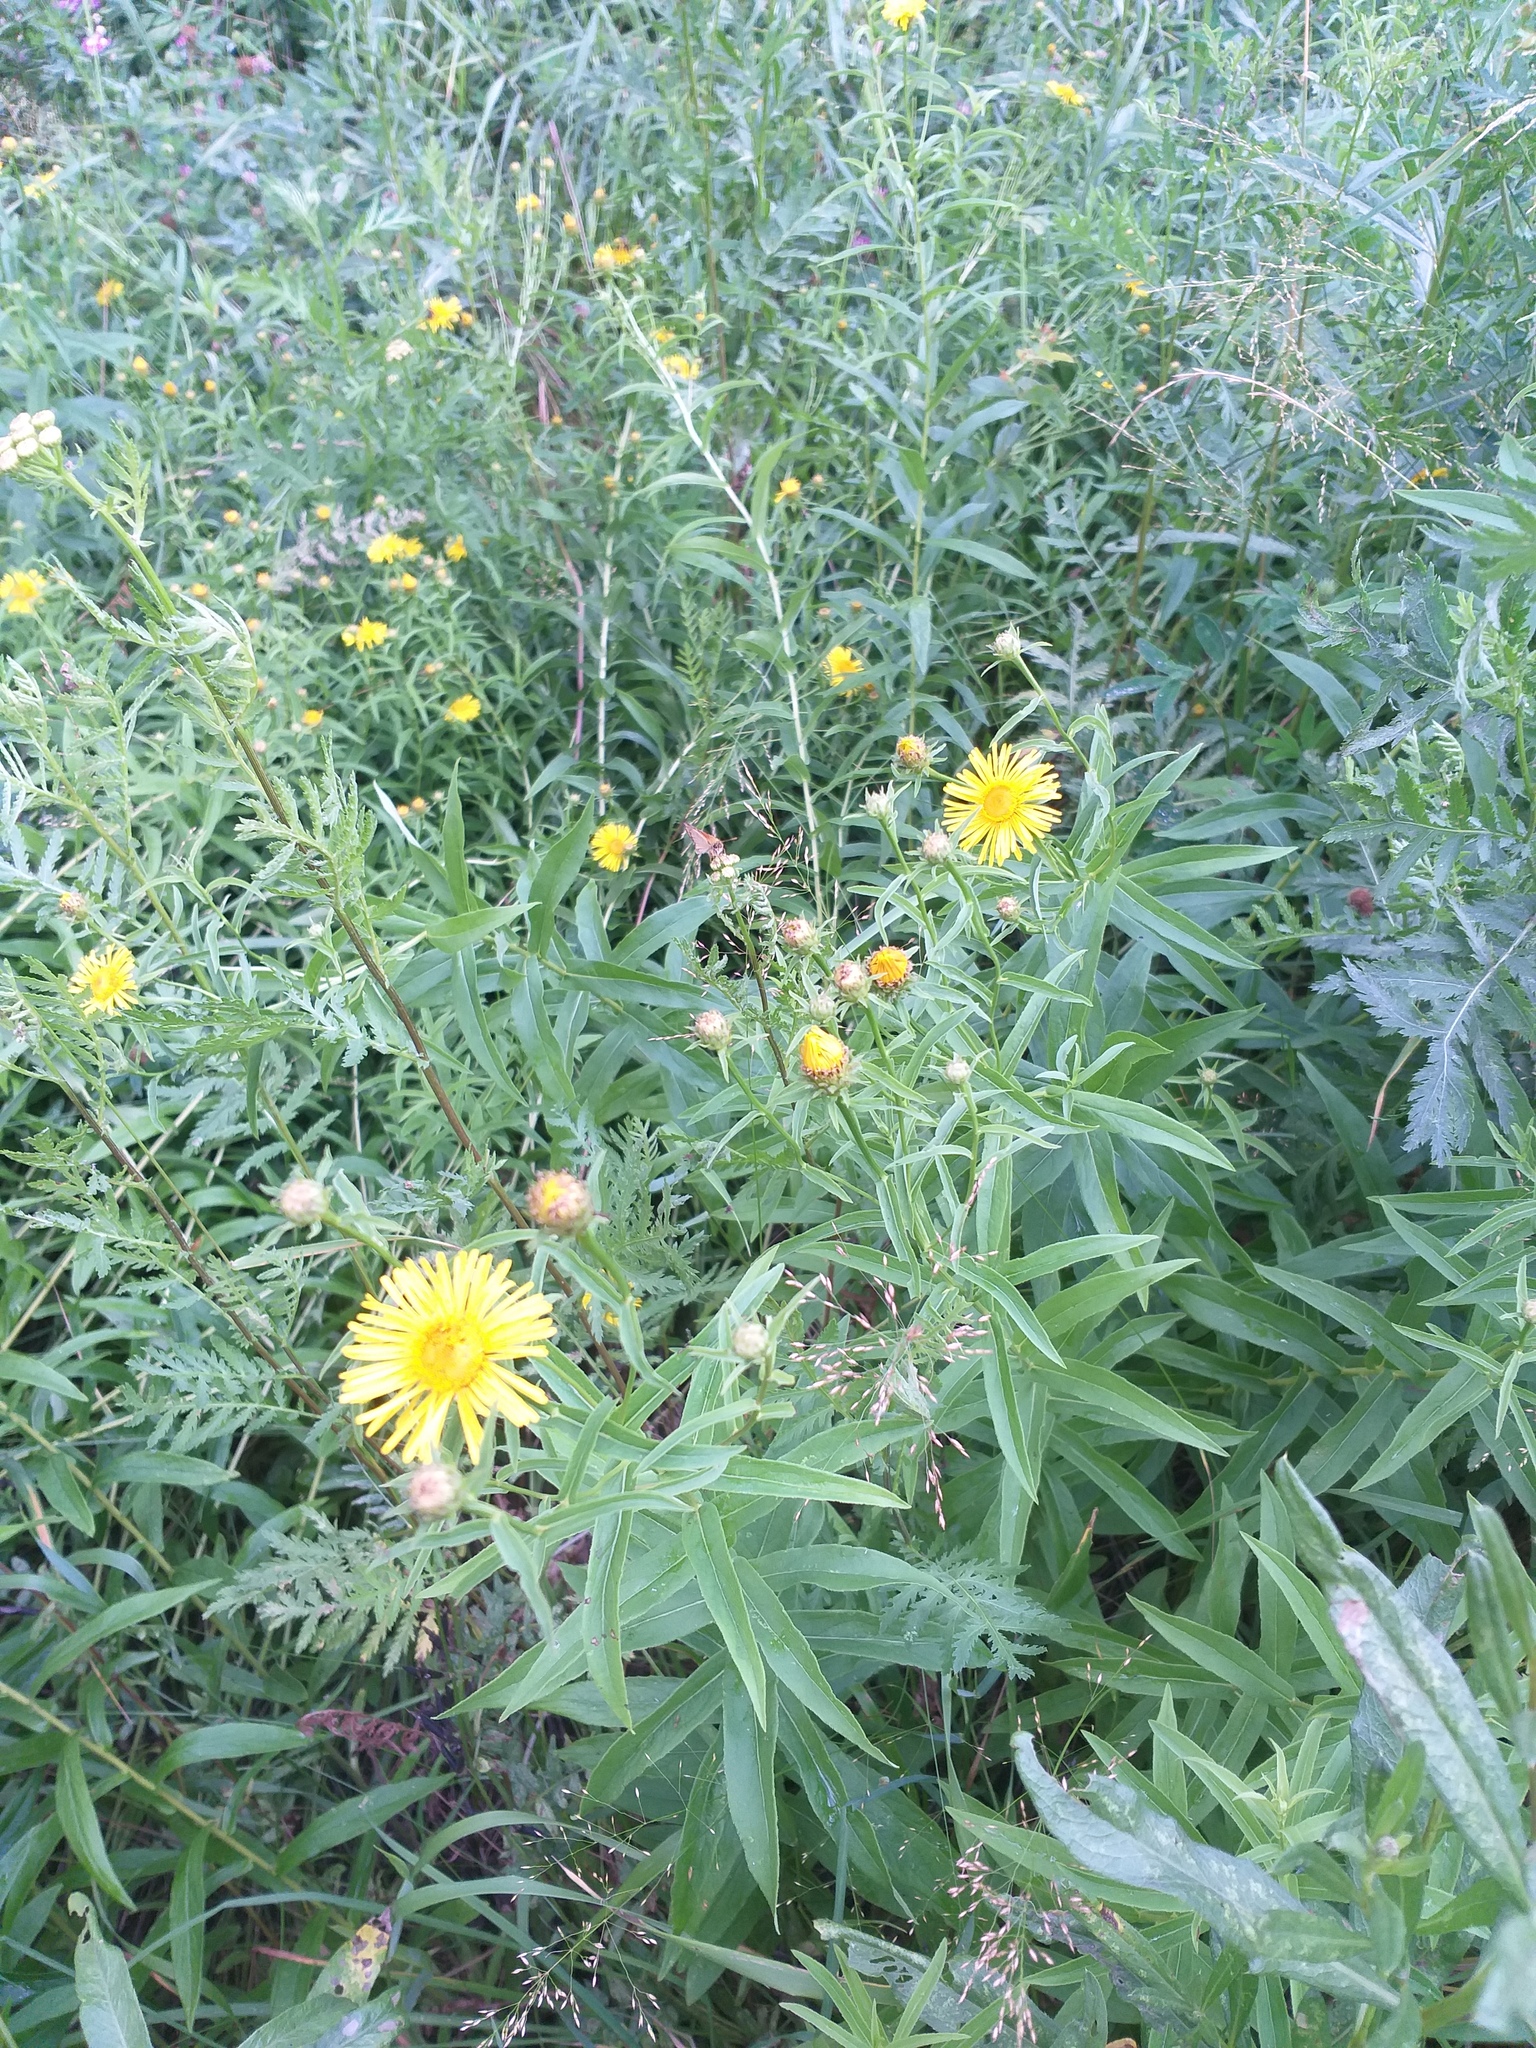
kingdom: Plantae
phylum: Tracheophyta
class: Magnoliopsida
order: Asterales
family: Asteraceae
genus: Pentanema
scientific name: Pentanema salicinum
